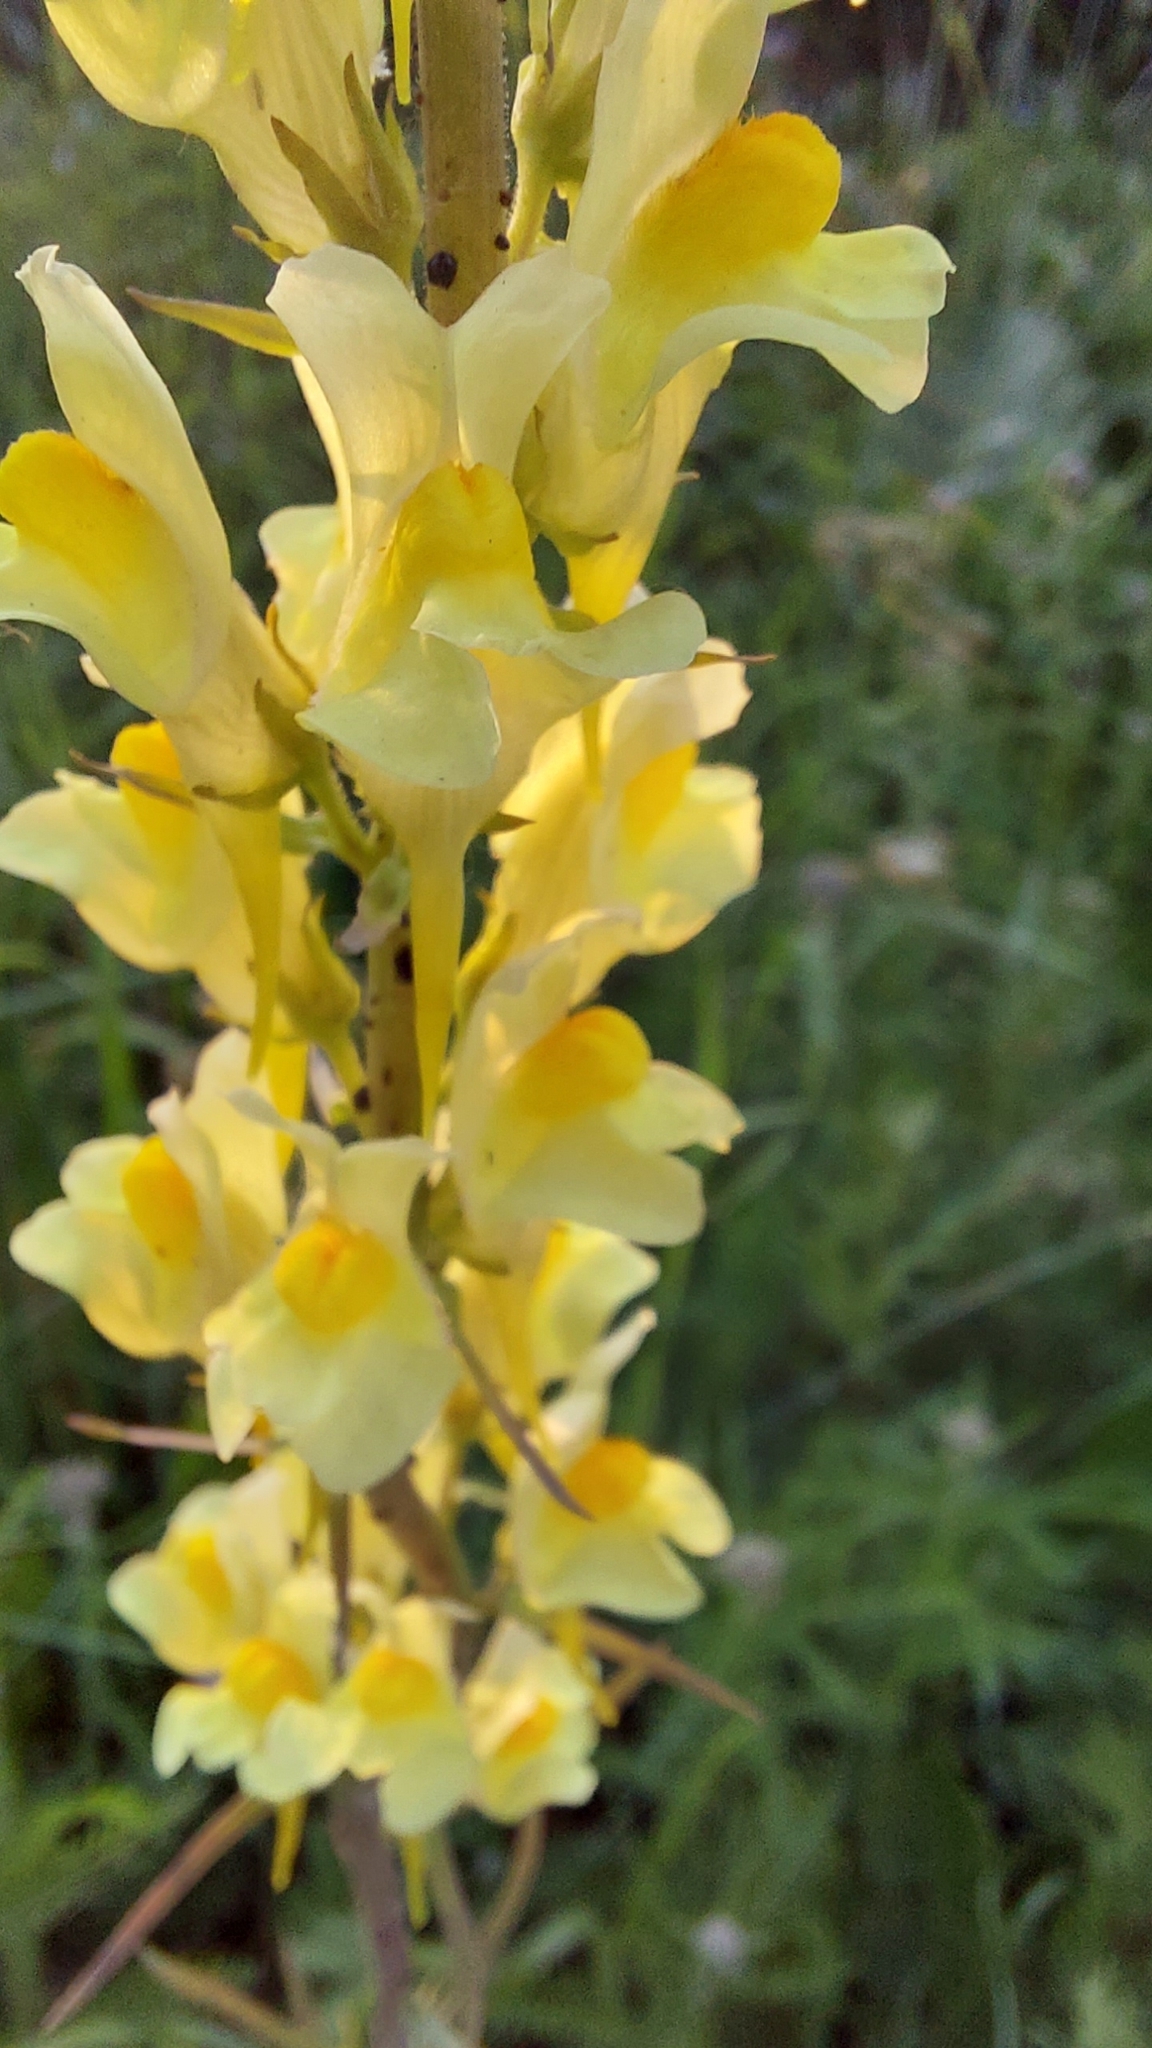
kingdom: Plantae
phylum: Tracheophyta
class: Magnoliopsida
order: Lamiales
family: Plantaginaceae
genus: Linaria
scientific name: Linaria vulgaris
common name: Butter and eggs
